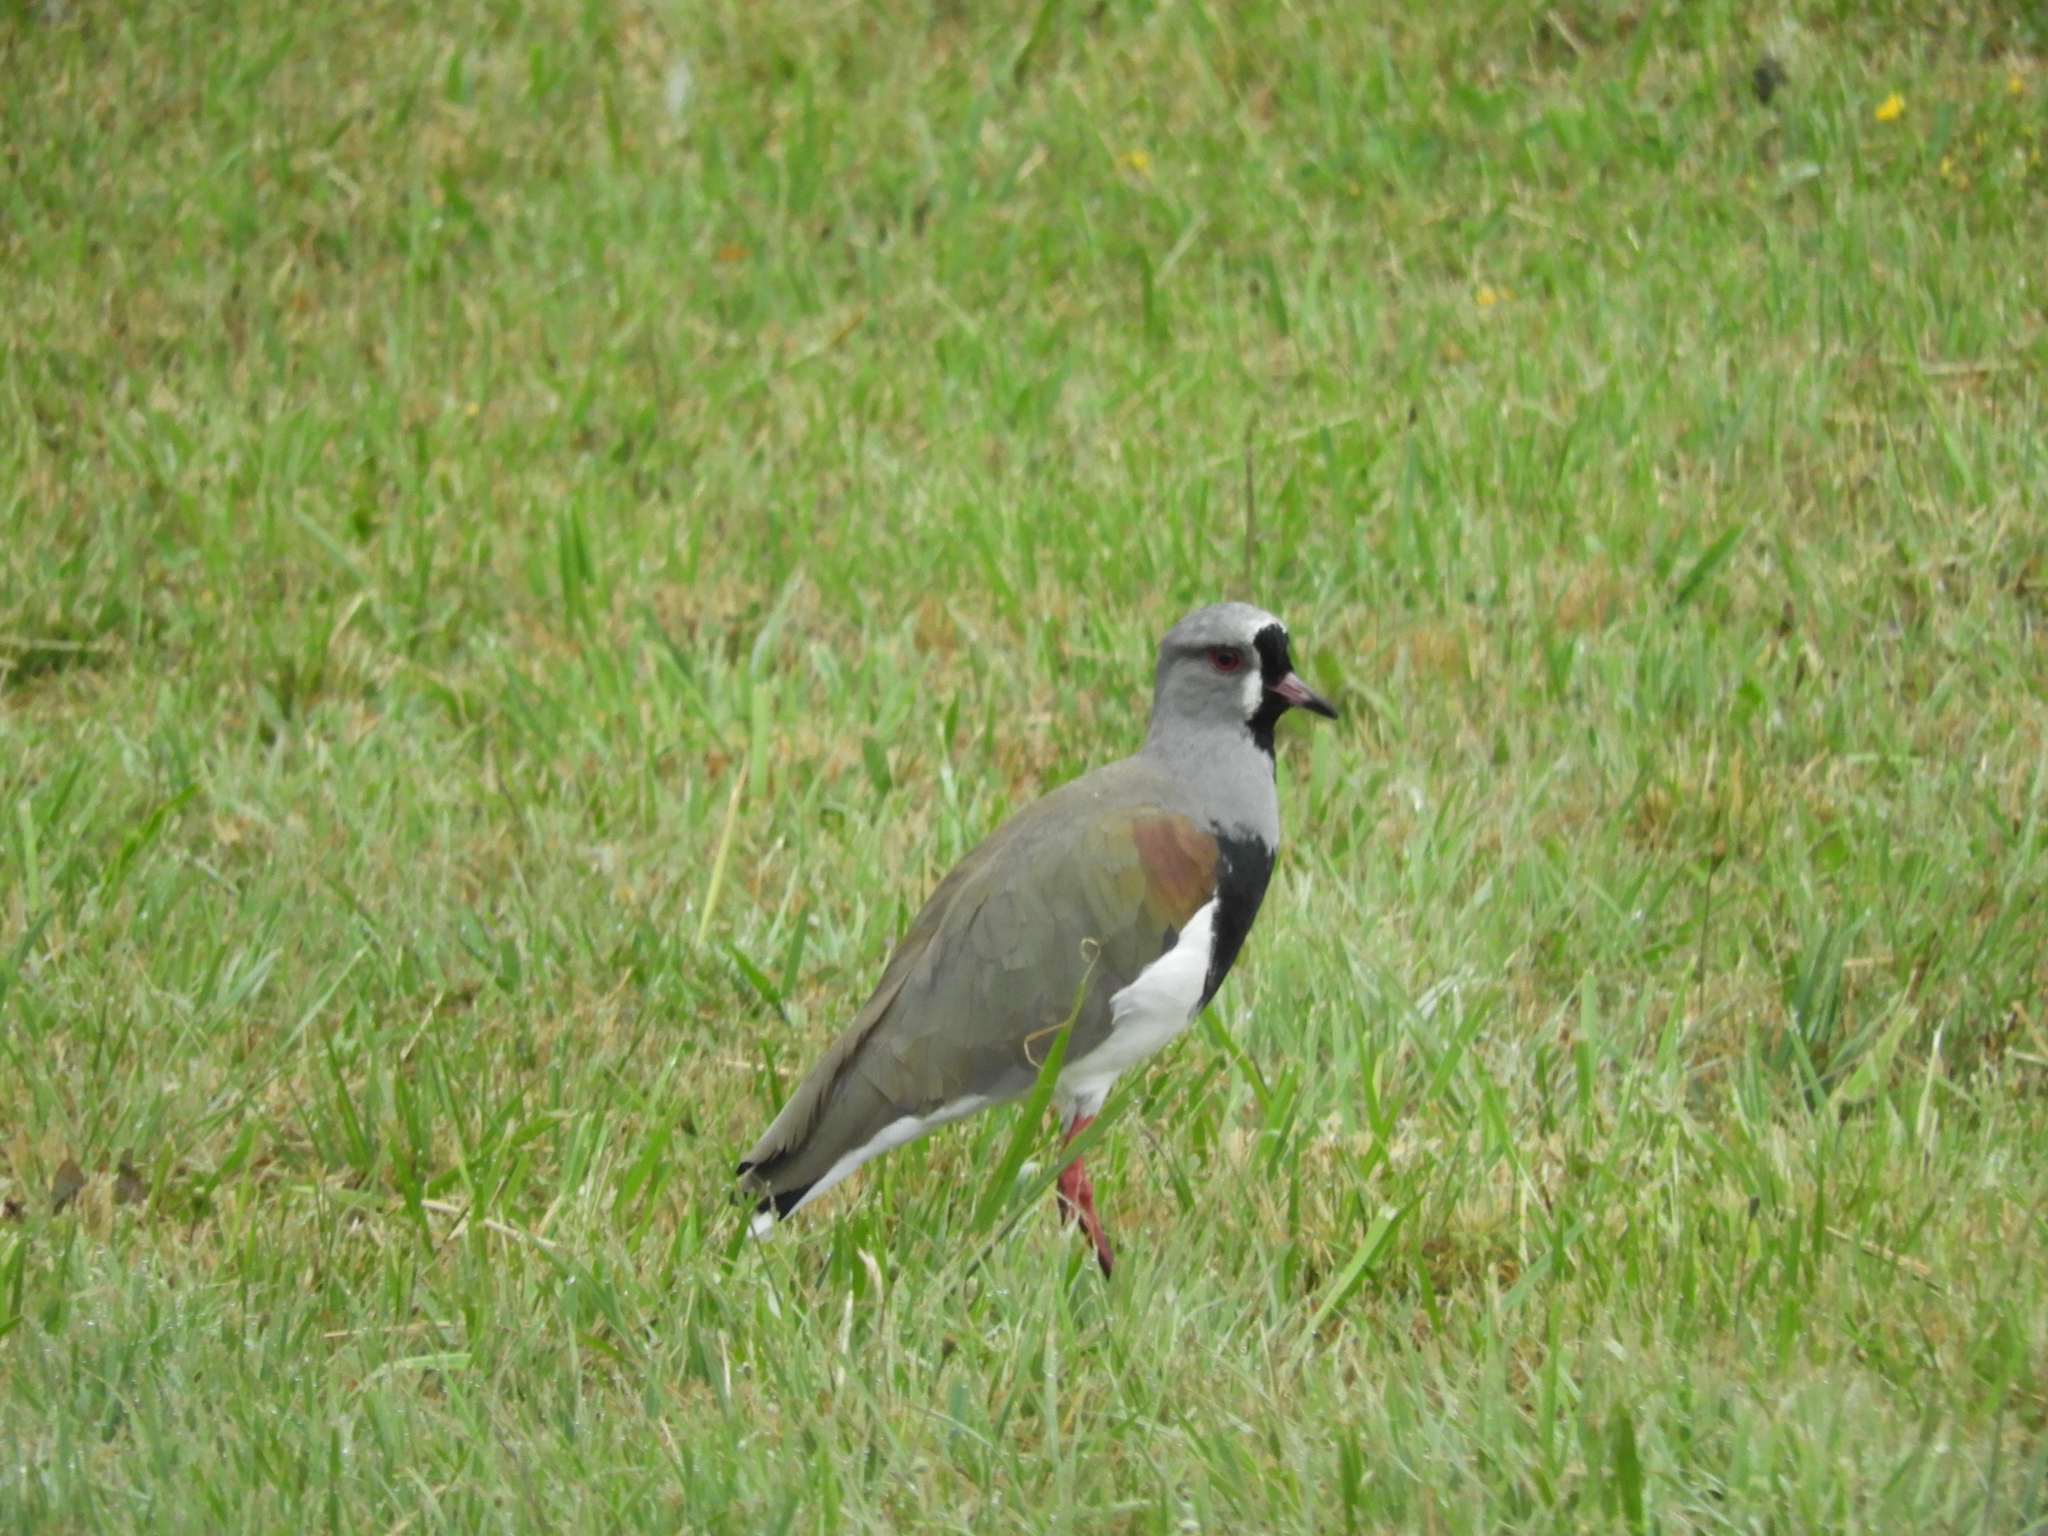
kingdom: Animalia
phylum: Chordata
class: Aves
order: Charadriiformes
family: Charadriidae
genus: Vanellus
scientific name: Vanellus chilensis
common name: Southern lapwing
